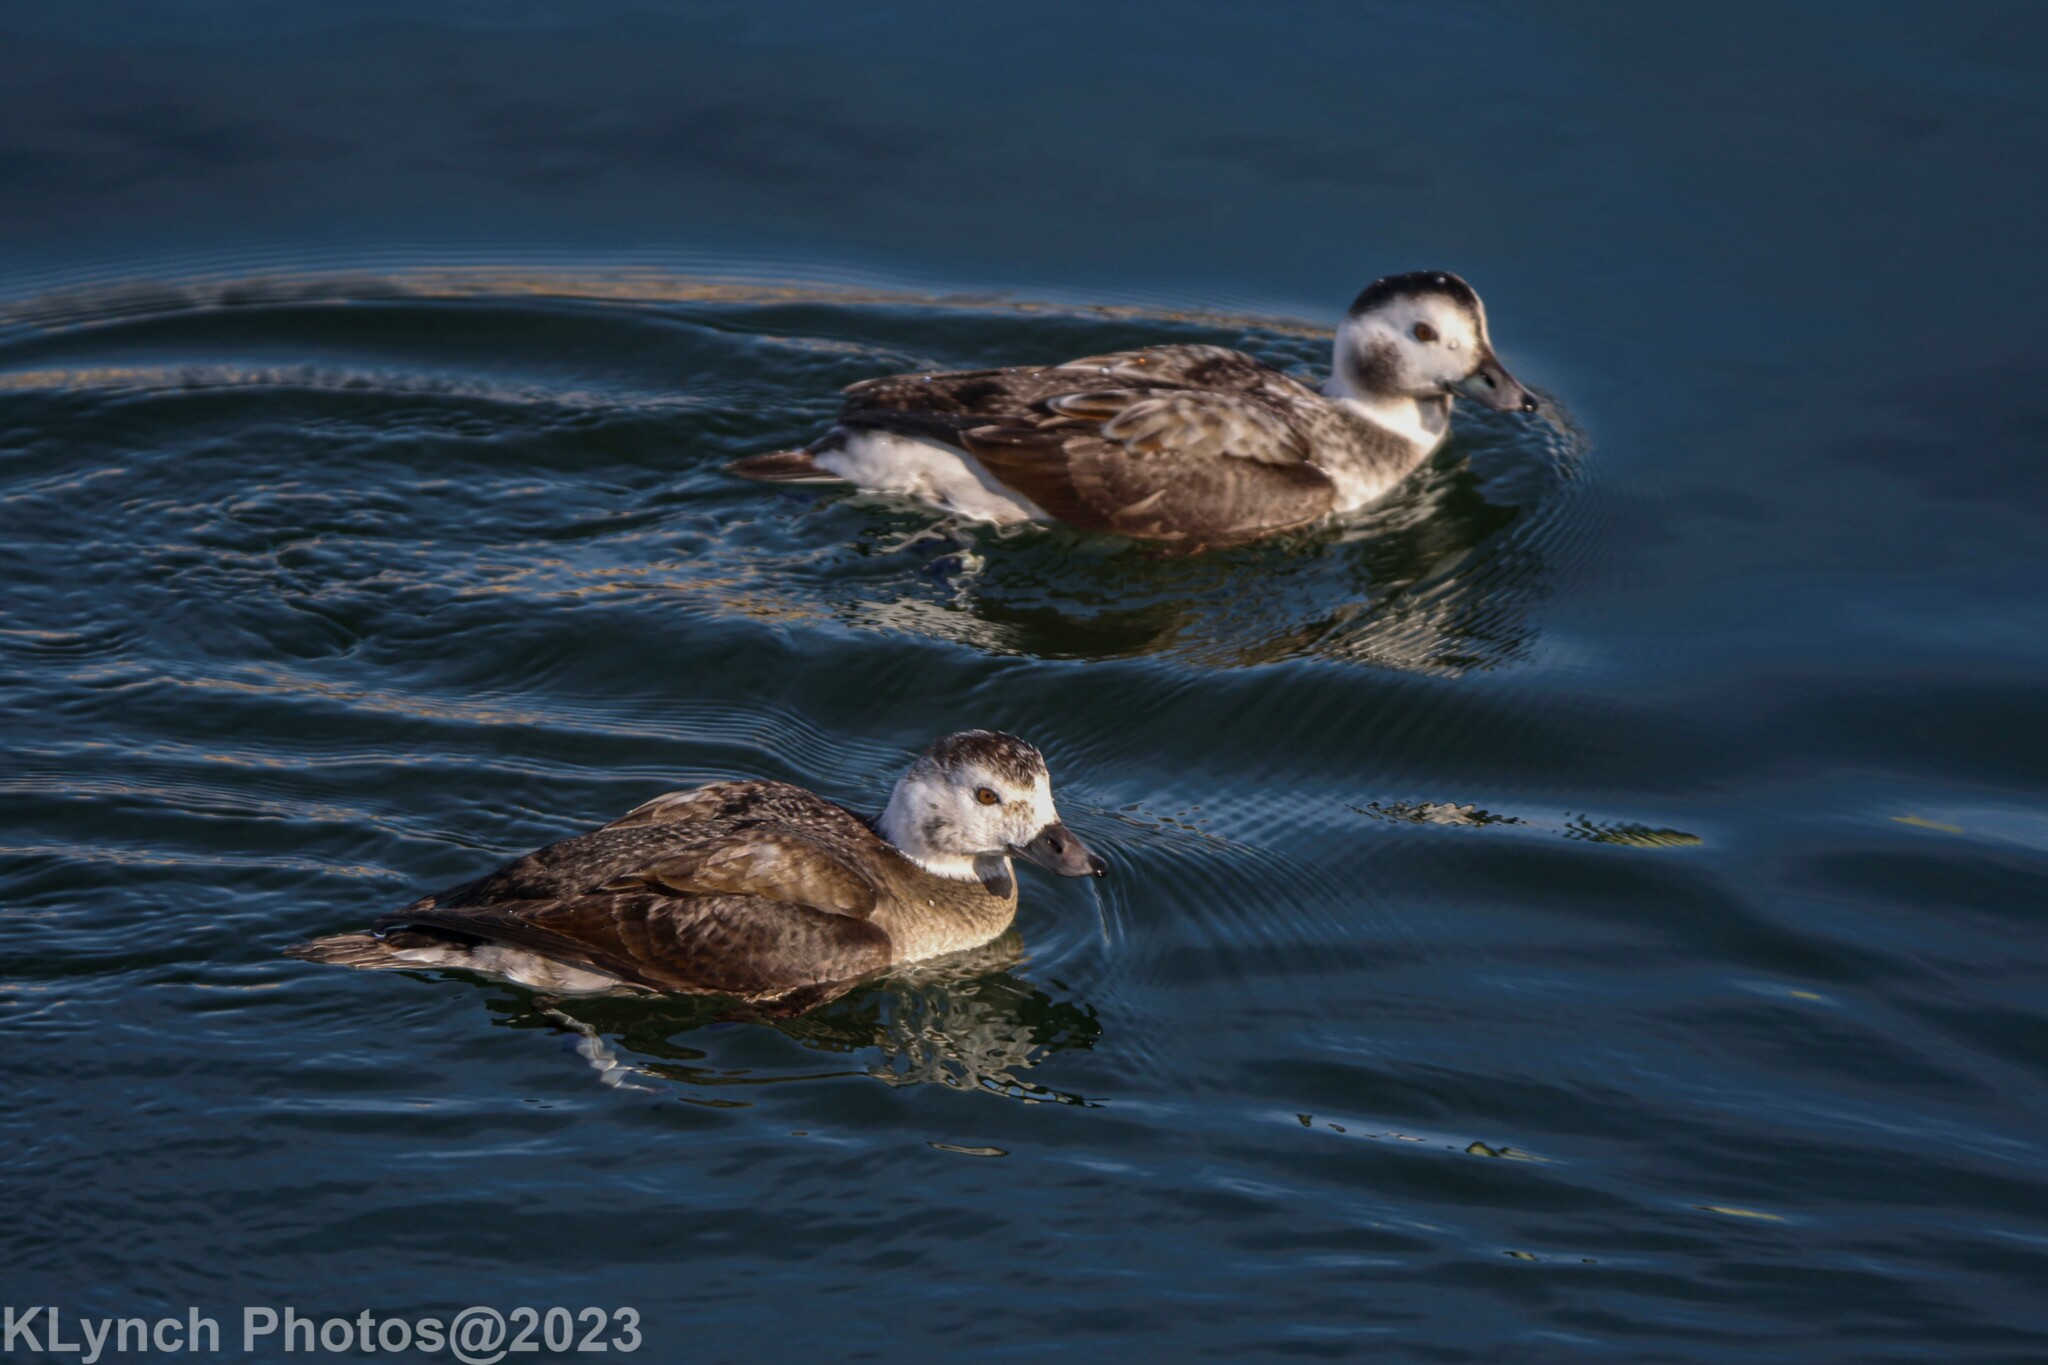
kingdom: Animalia
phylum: Chordata
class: Aves
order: Anseriformes
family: Anatidae
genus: Clangula
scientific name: Clangula hyemalis
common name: Long-tailed duck
